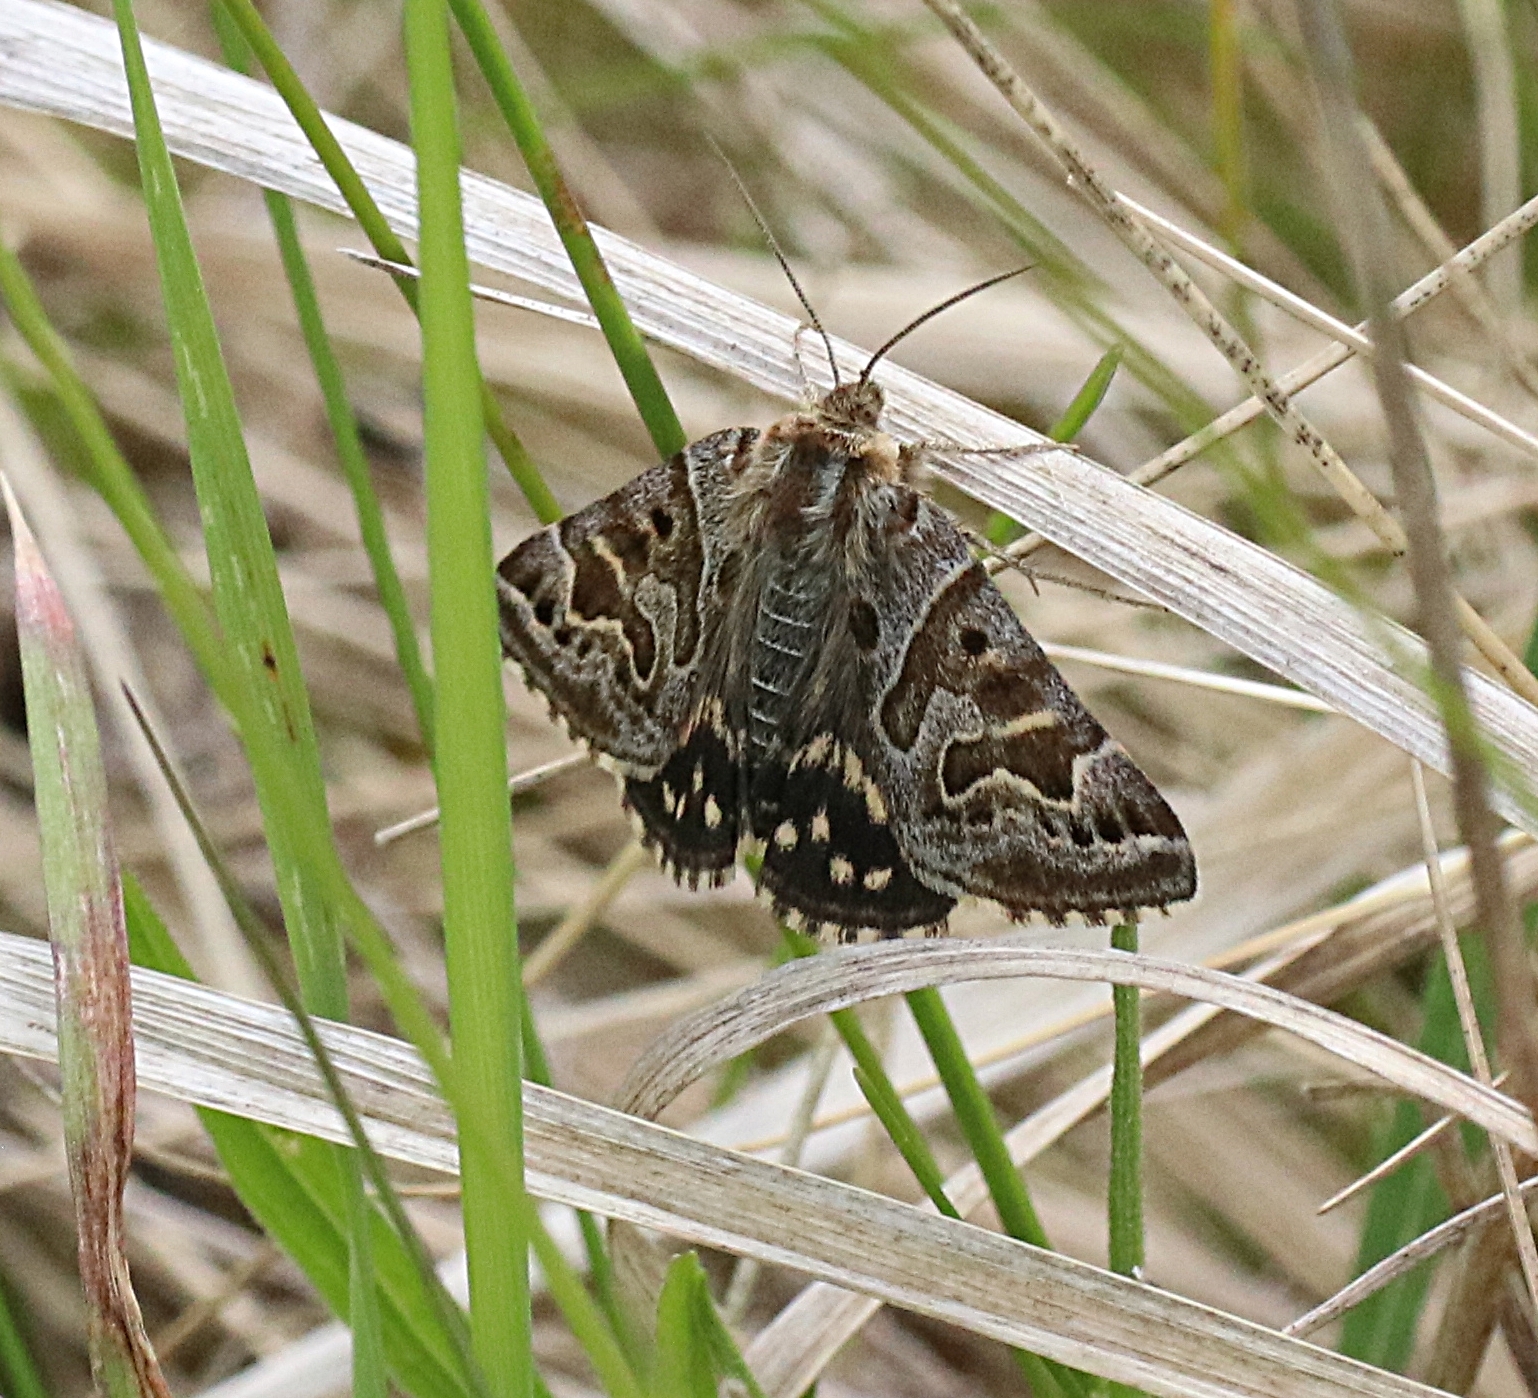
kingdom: Animalia
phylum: Arthropoda
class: Insecta
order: Lepidoptera
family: Erebidae
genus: Callistege
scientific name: Callistege mi
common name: Mother shipton
